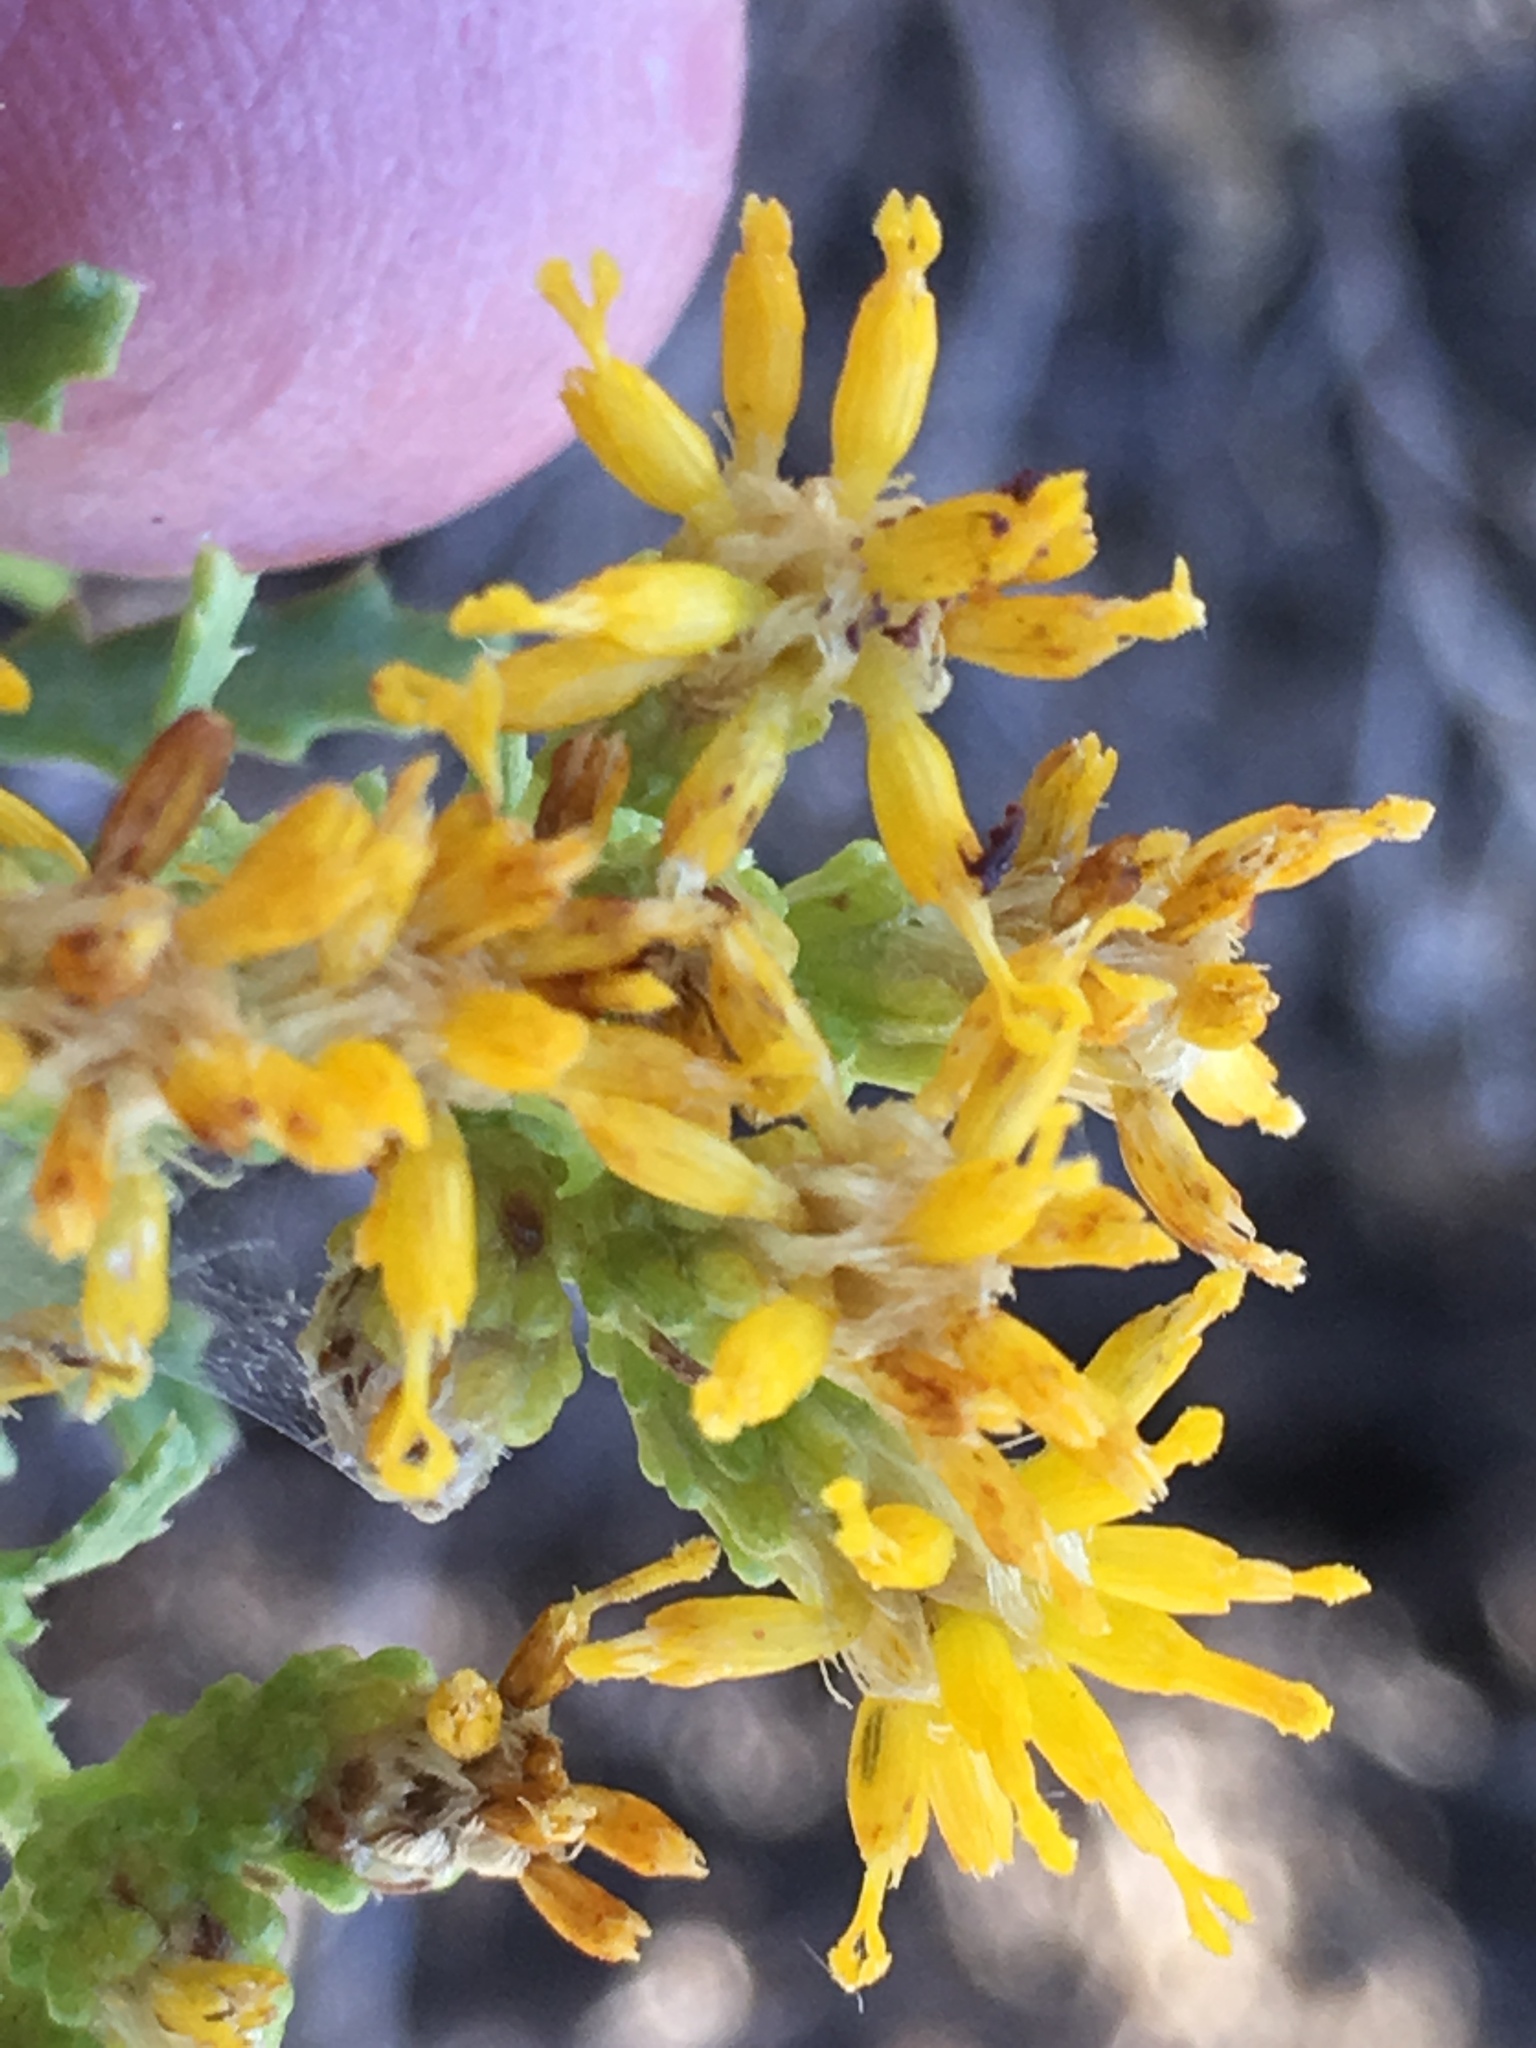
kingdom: Plantae
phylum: Tracheophyta
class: Magnoliopsida
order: Asterales
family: Asteraceae
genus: Isocoma
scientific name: Isocoma acradenia
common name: Alkali jimmyweed
